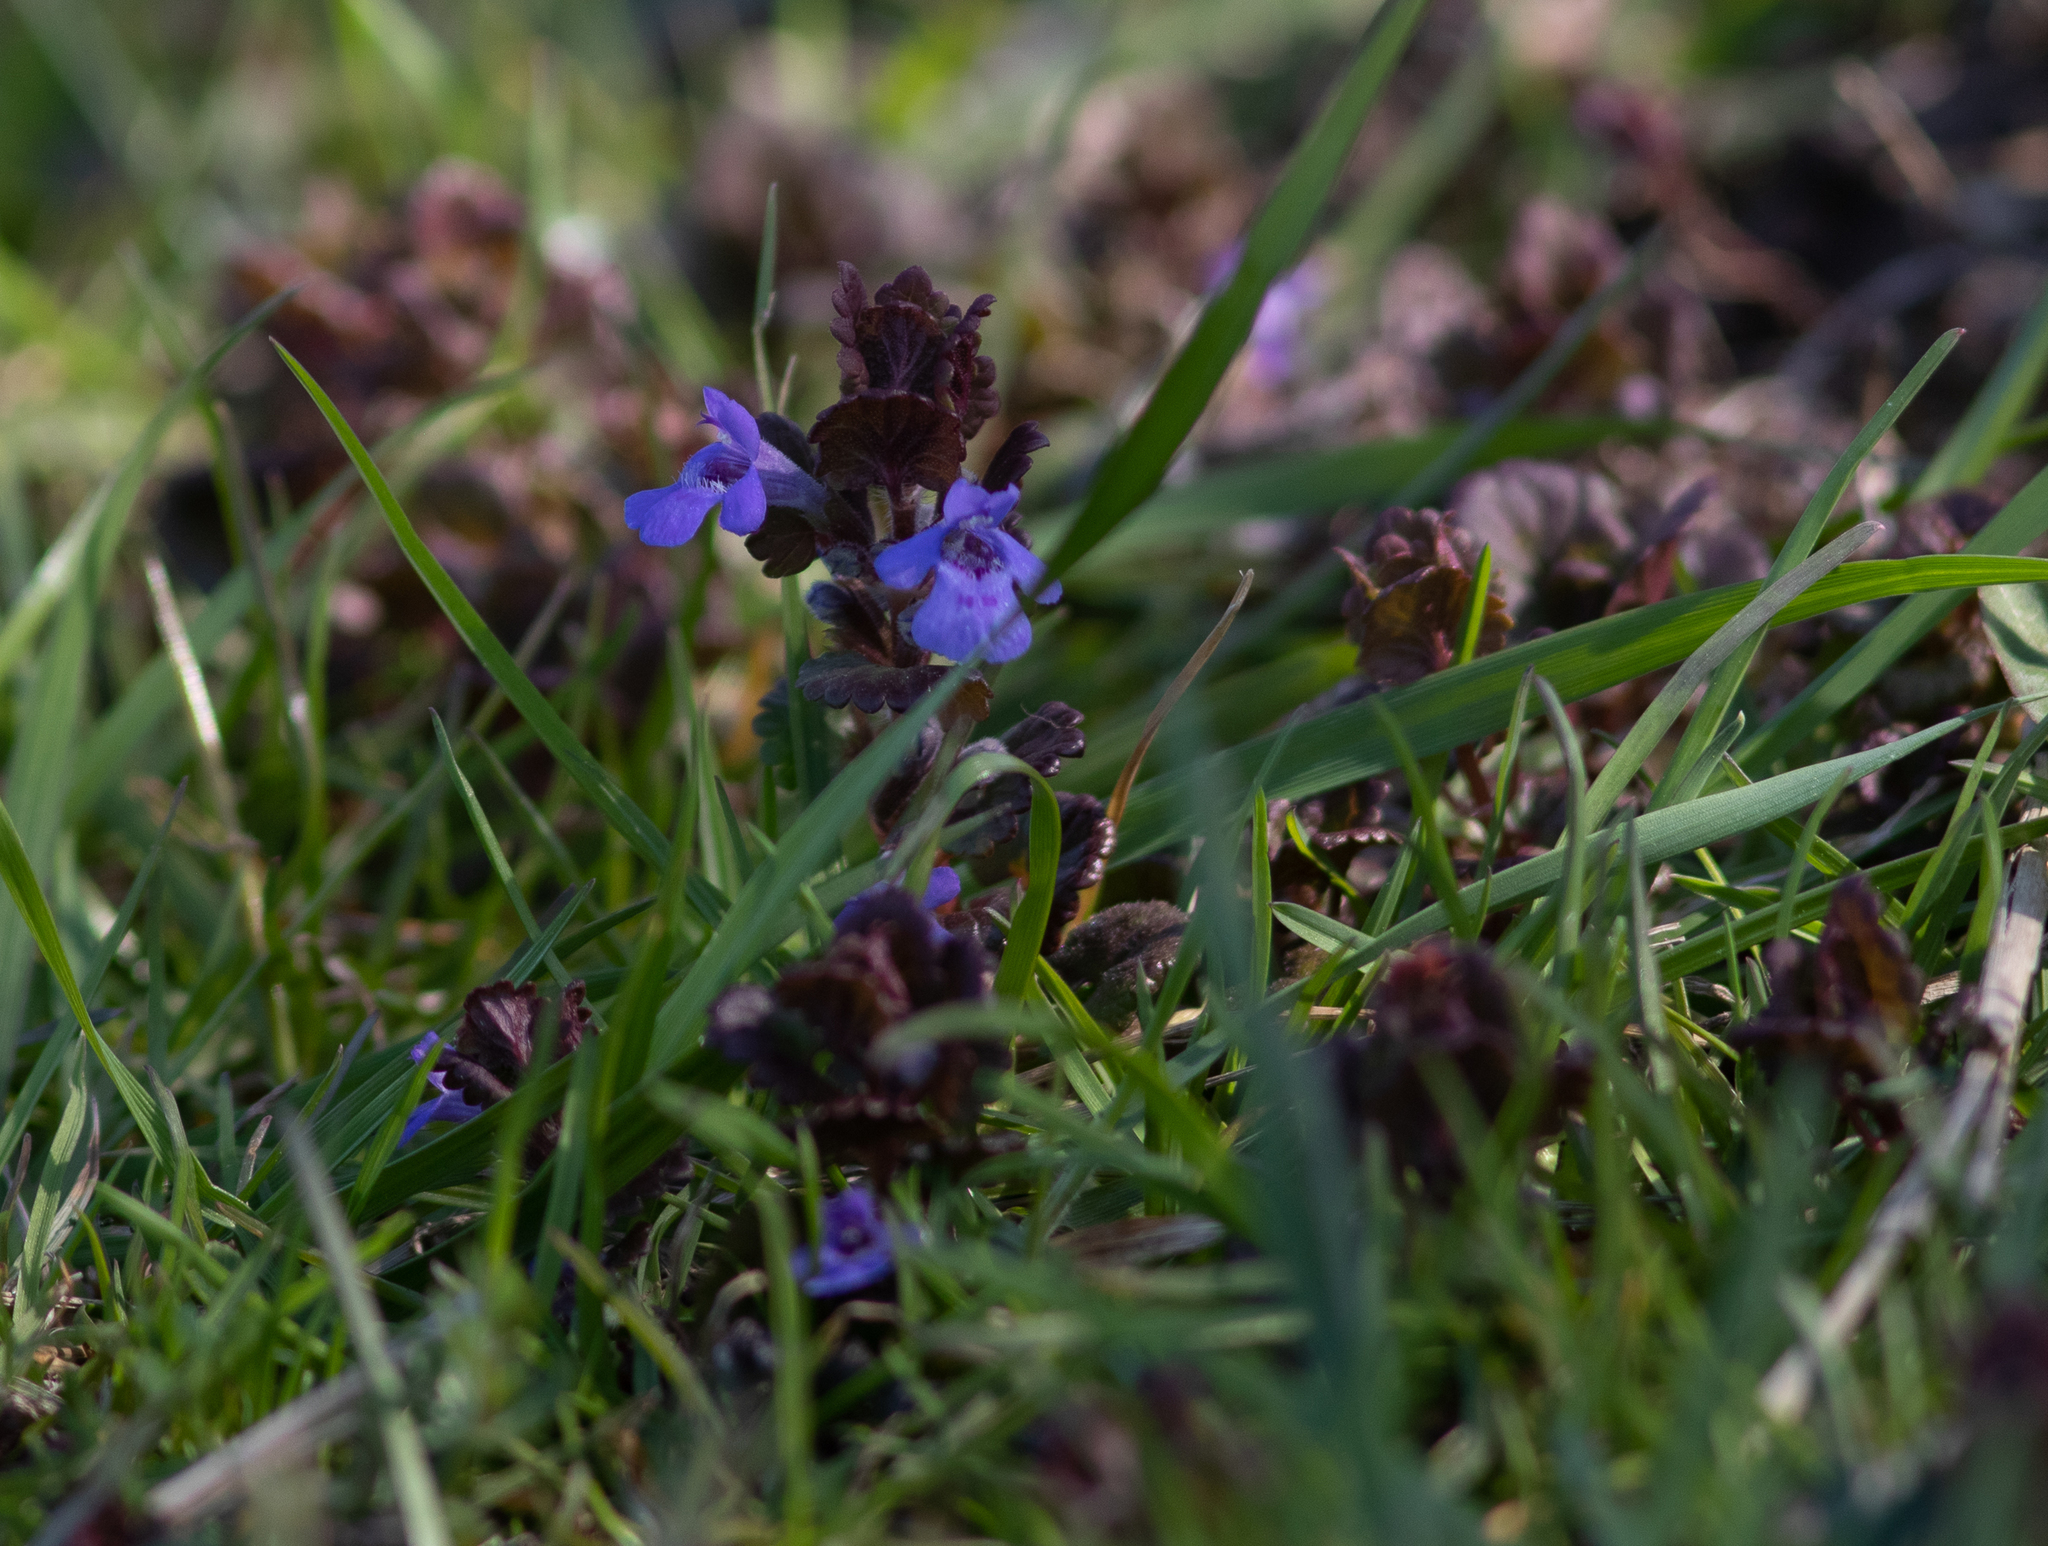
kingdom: Plantae
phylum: Tracheophyta
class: Magnoliopsida
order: Lamiales
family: Lamiaceae
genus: Glechoma
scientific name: Glechoma hederacea
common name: Ground ivy
